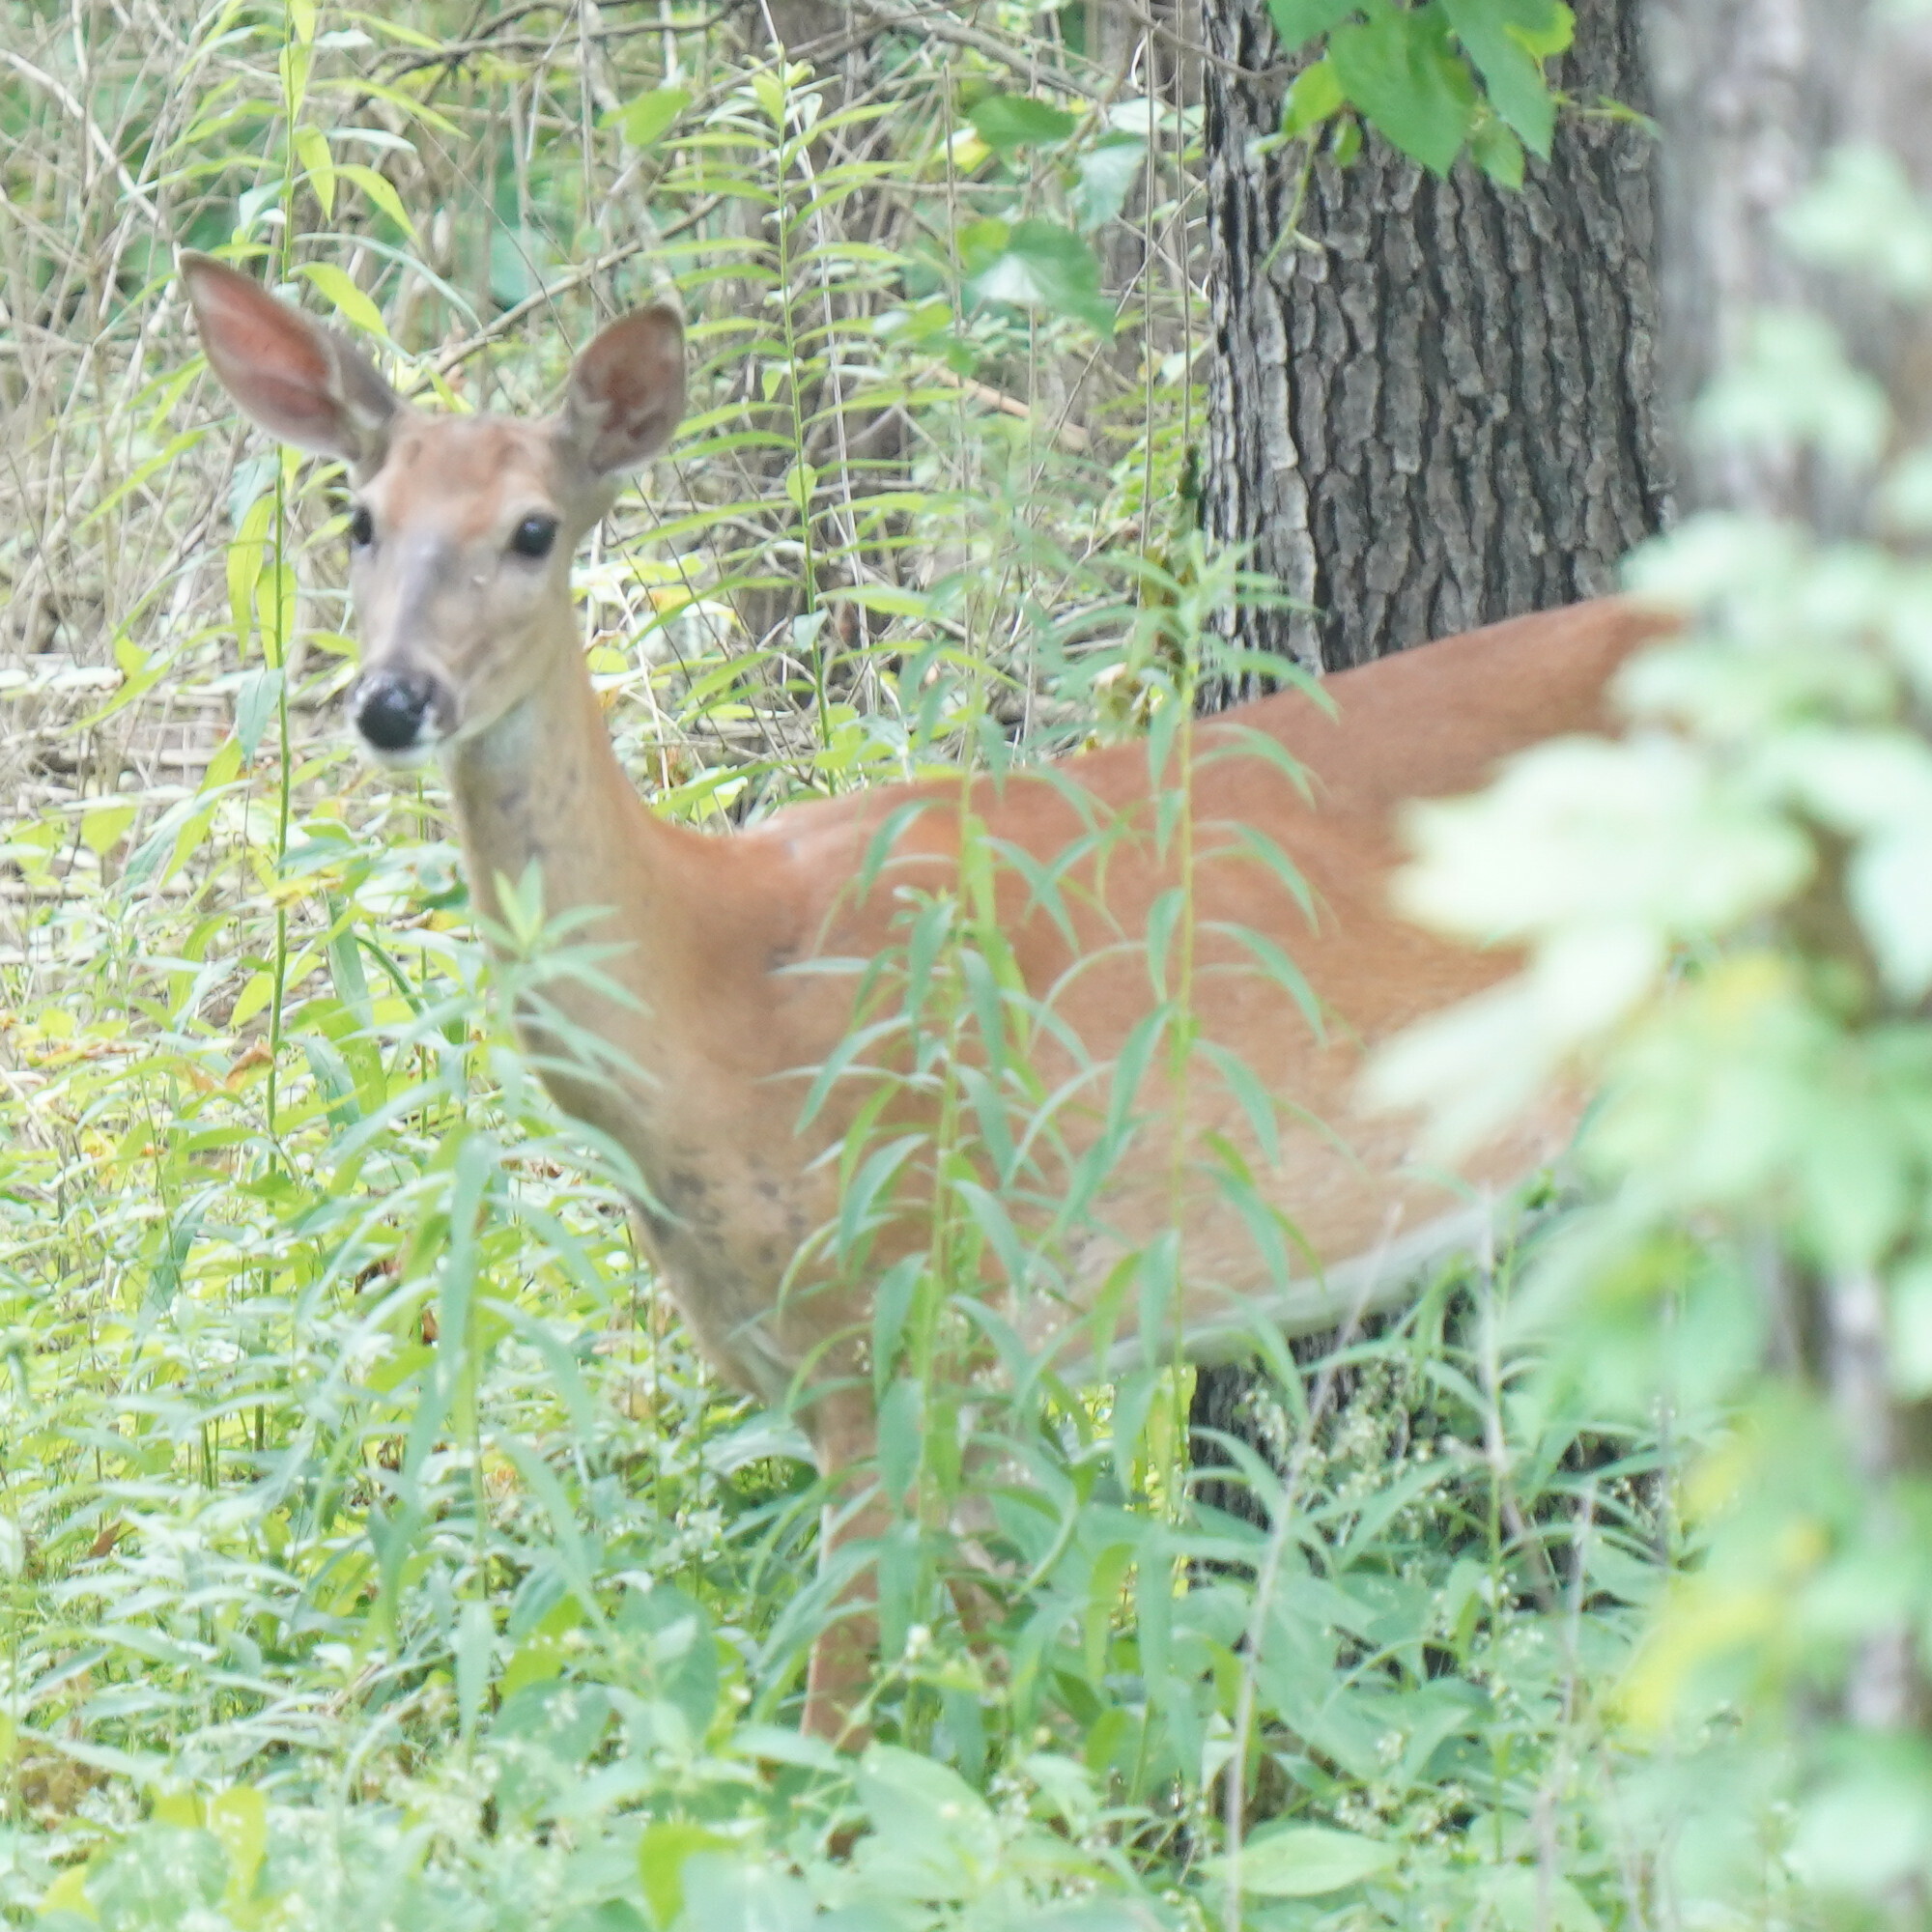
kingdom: Animalia
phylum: Chordata
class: Mammalia
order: Artiodactyla
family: Cervidae
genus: Odocoileus
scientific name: Odocoileus virginianus
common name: White-tailed deer
